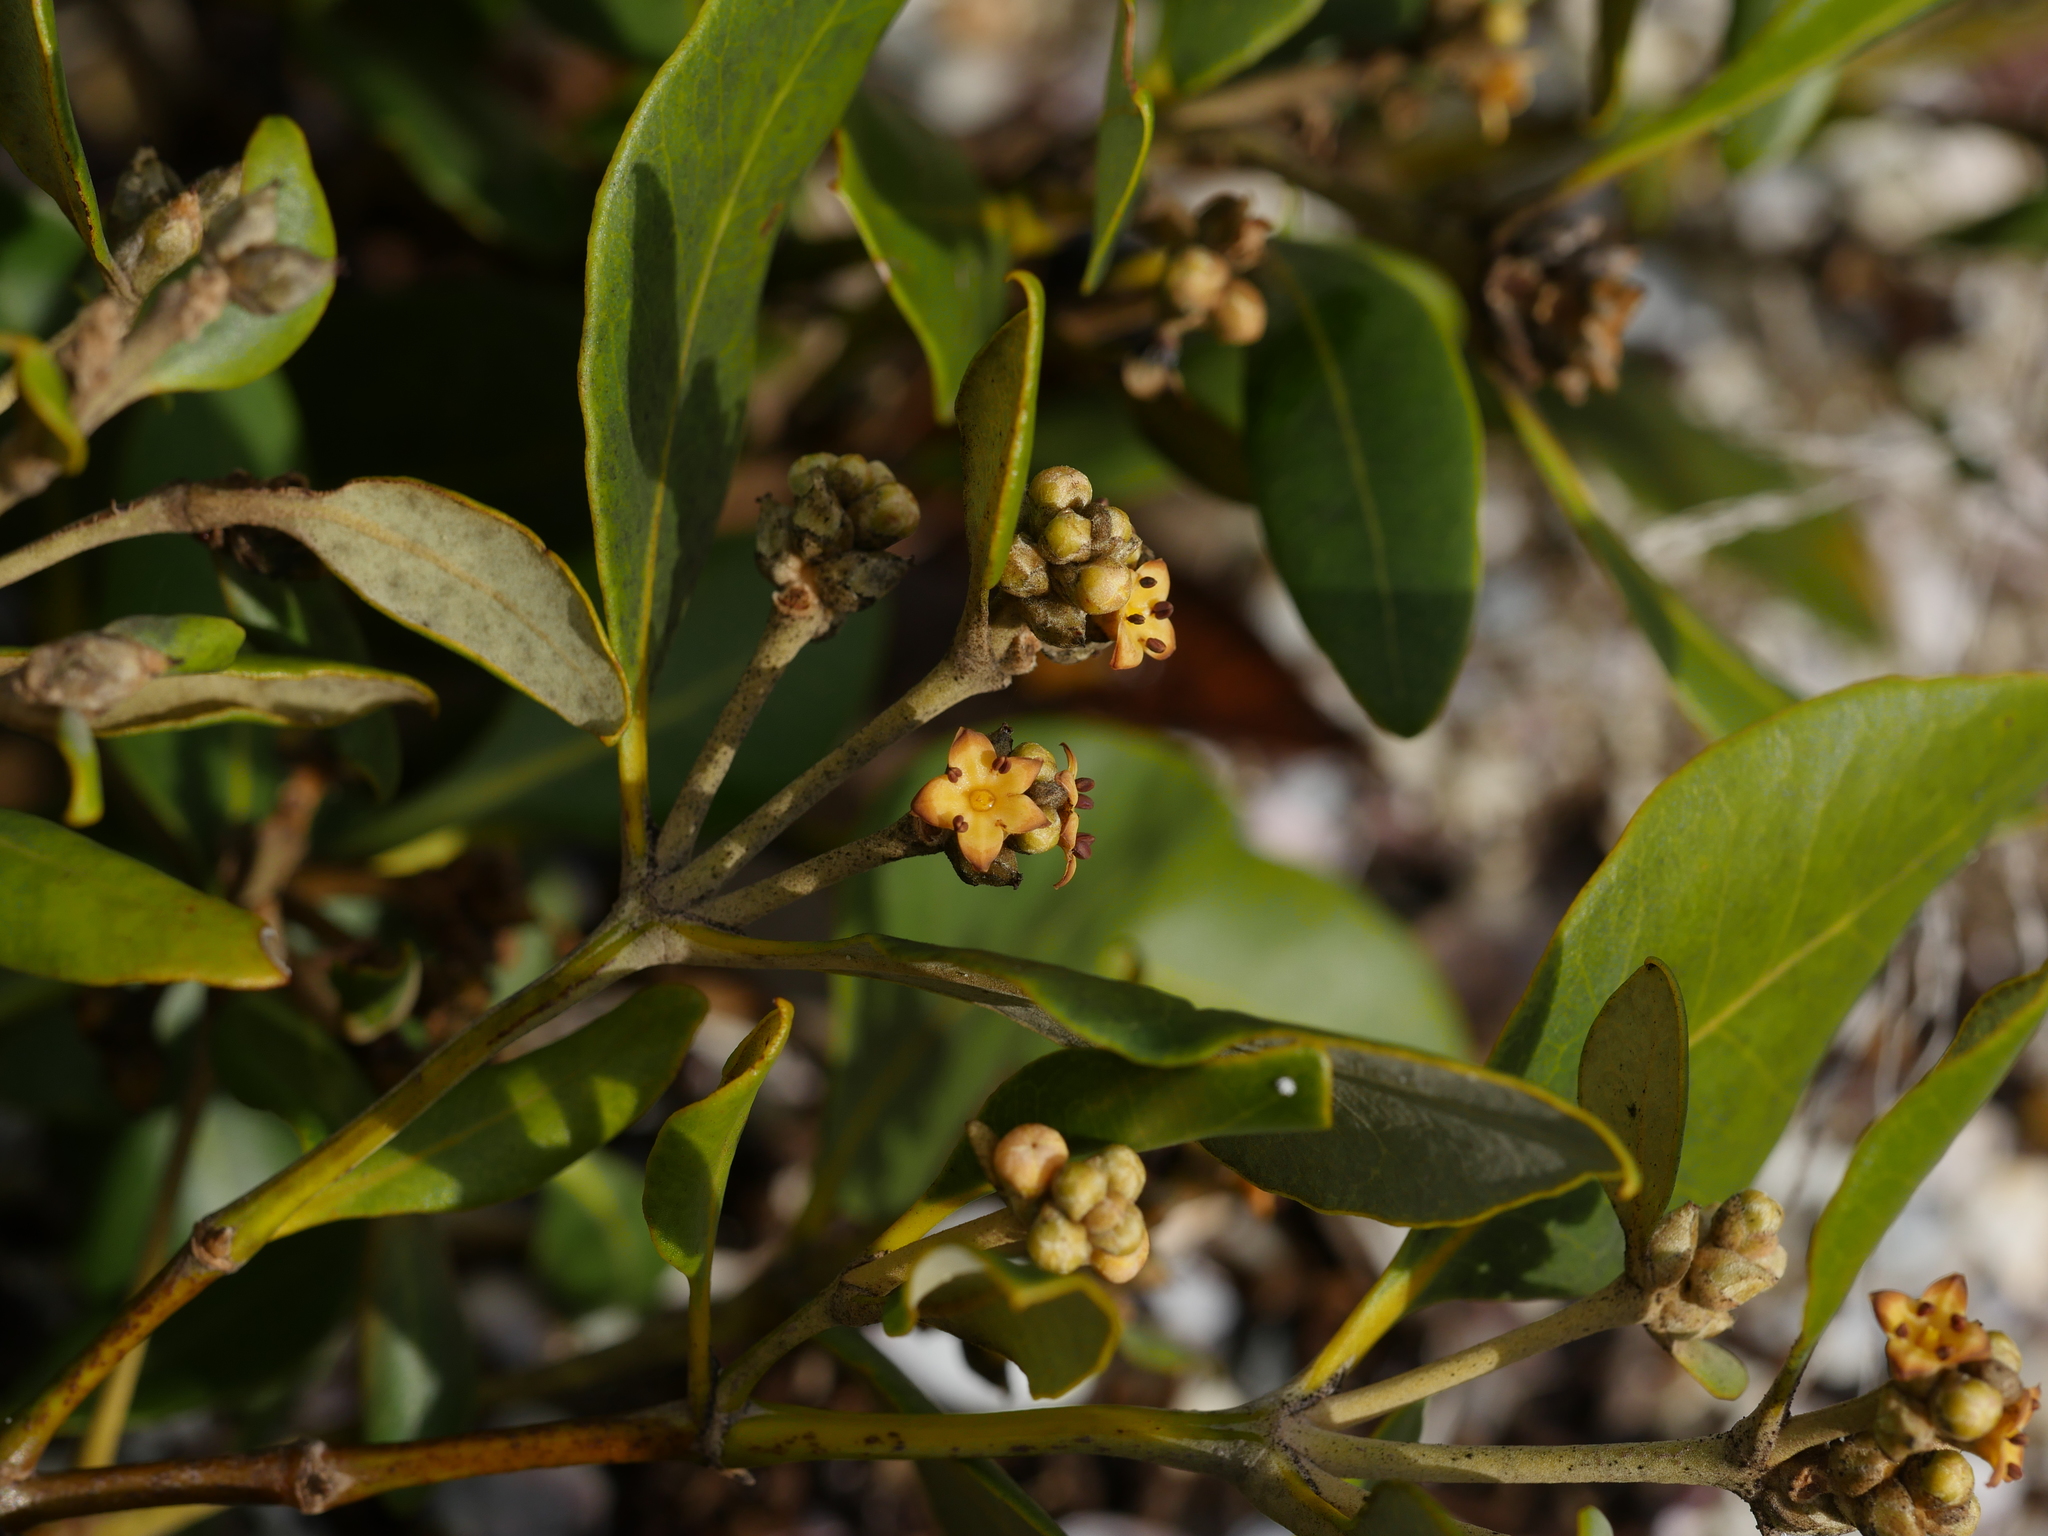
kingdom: Plantae
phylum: Tracheophyta
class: Magnoliopsida
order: Lamiales
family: Acanthaceae
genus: Avicennia
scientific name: Avicennia marina
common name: Gray mangrove
